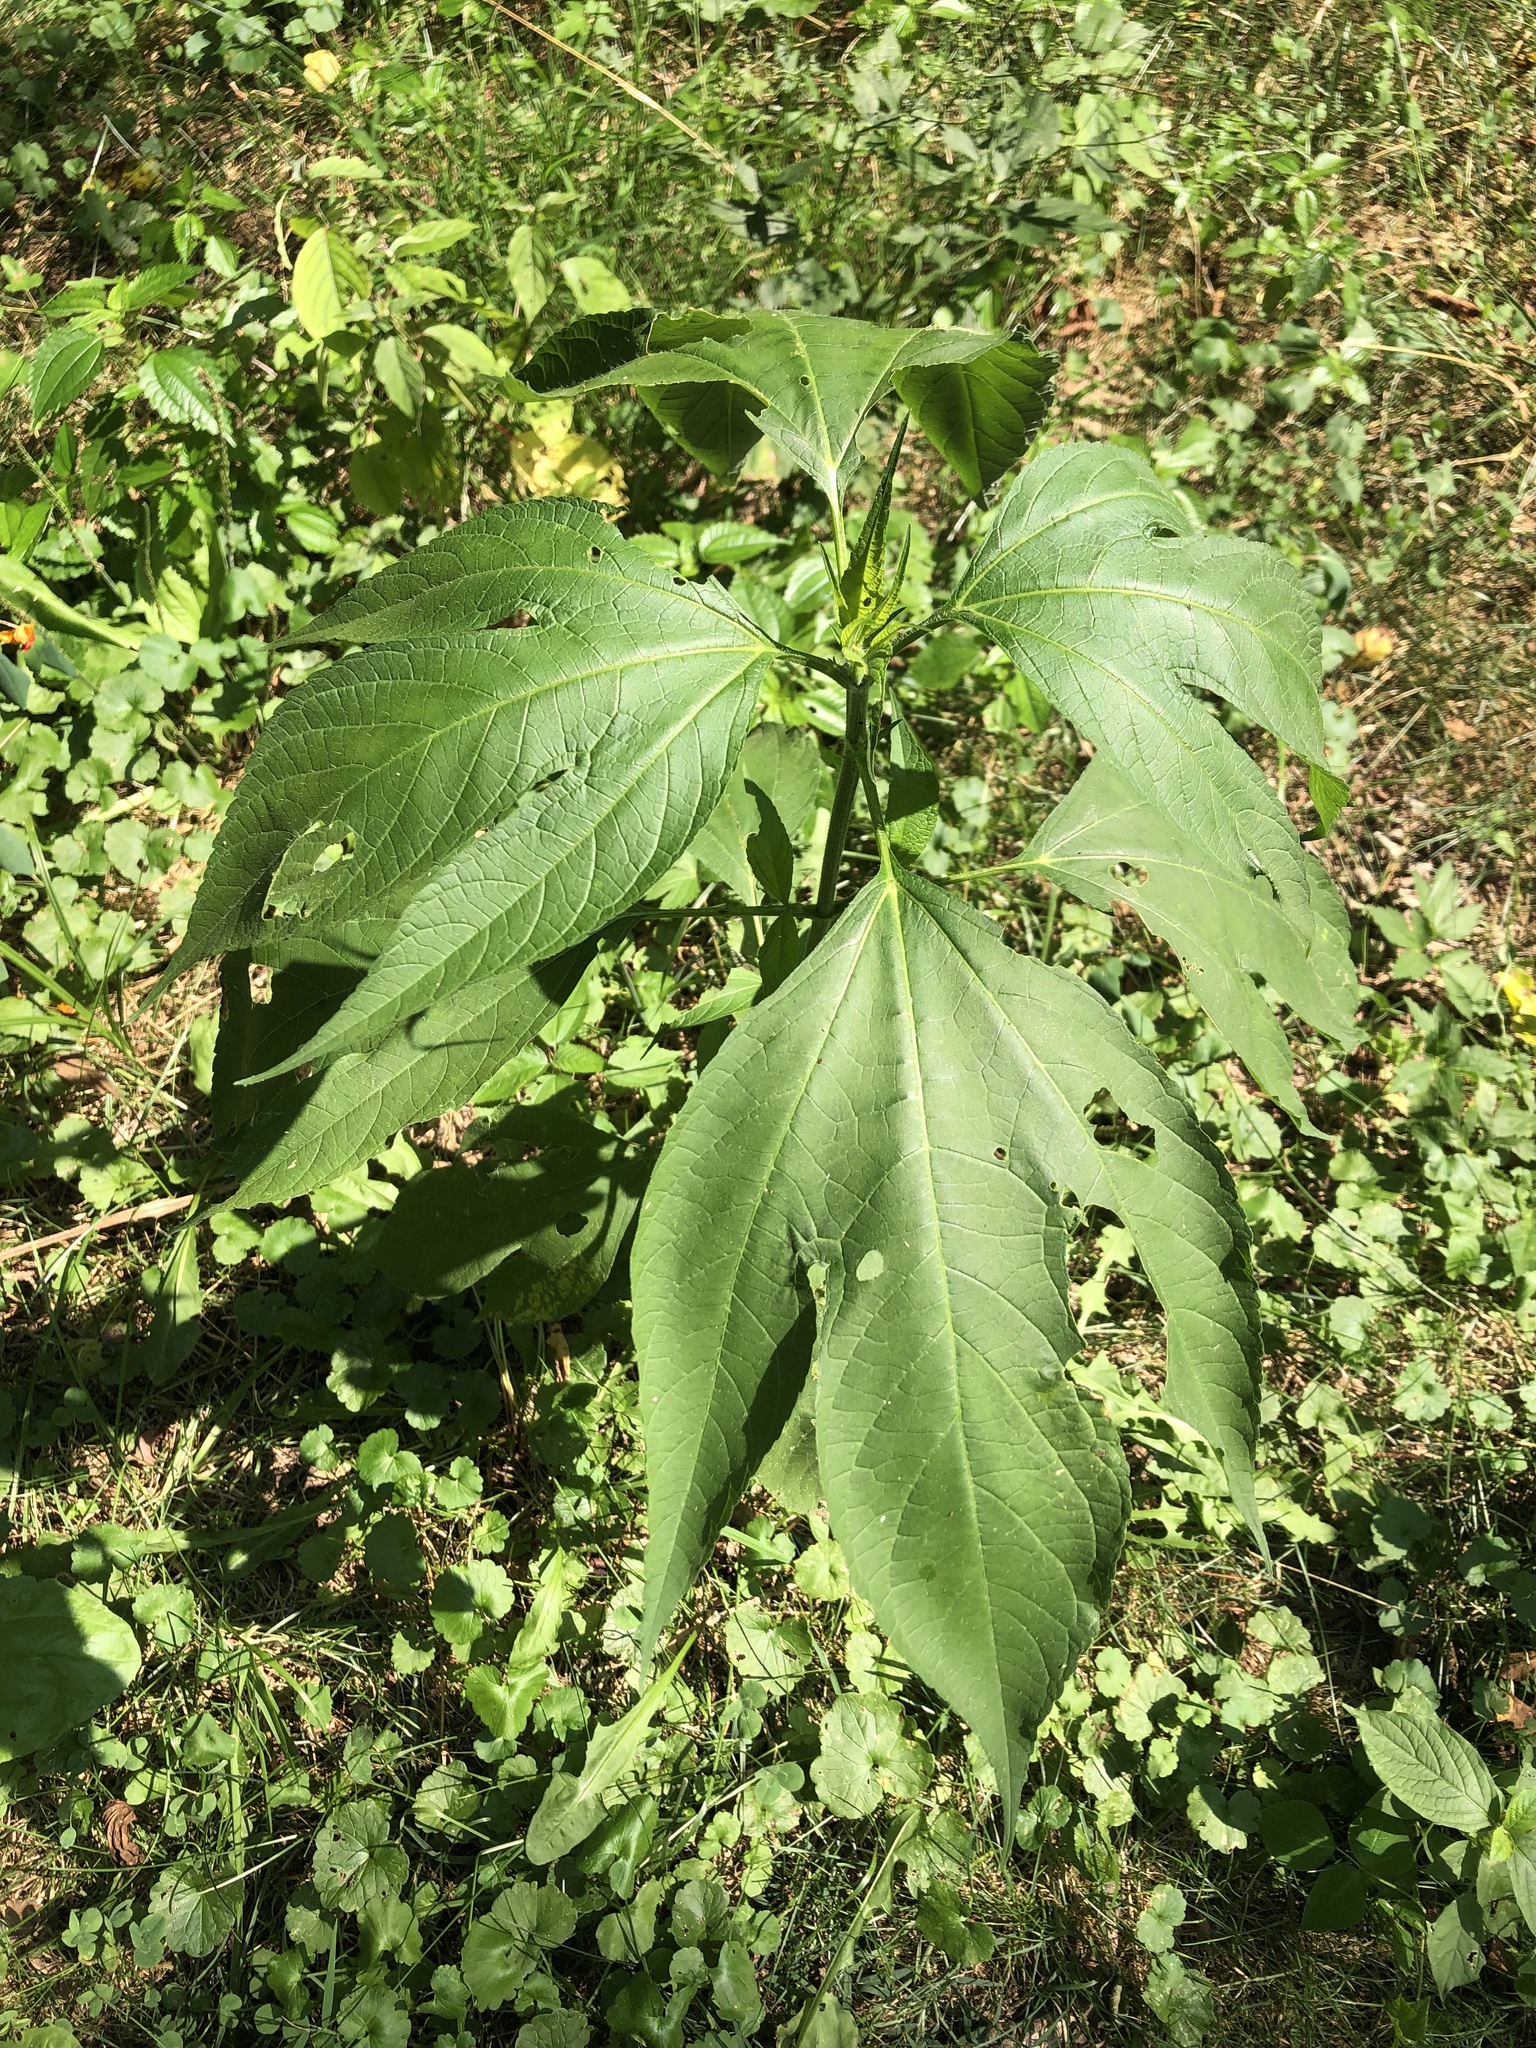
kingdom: Plantae
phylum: Tracheophyta
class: Magnoliopsida
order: Asterales
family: Asteraceae
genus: Ambrosia
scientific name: Ambrosia trifida
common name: Giant ragweed
